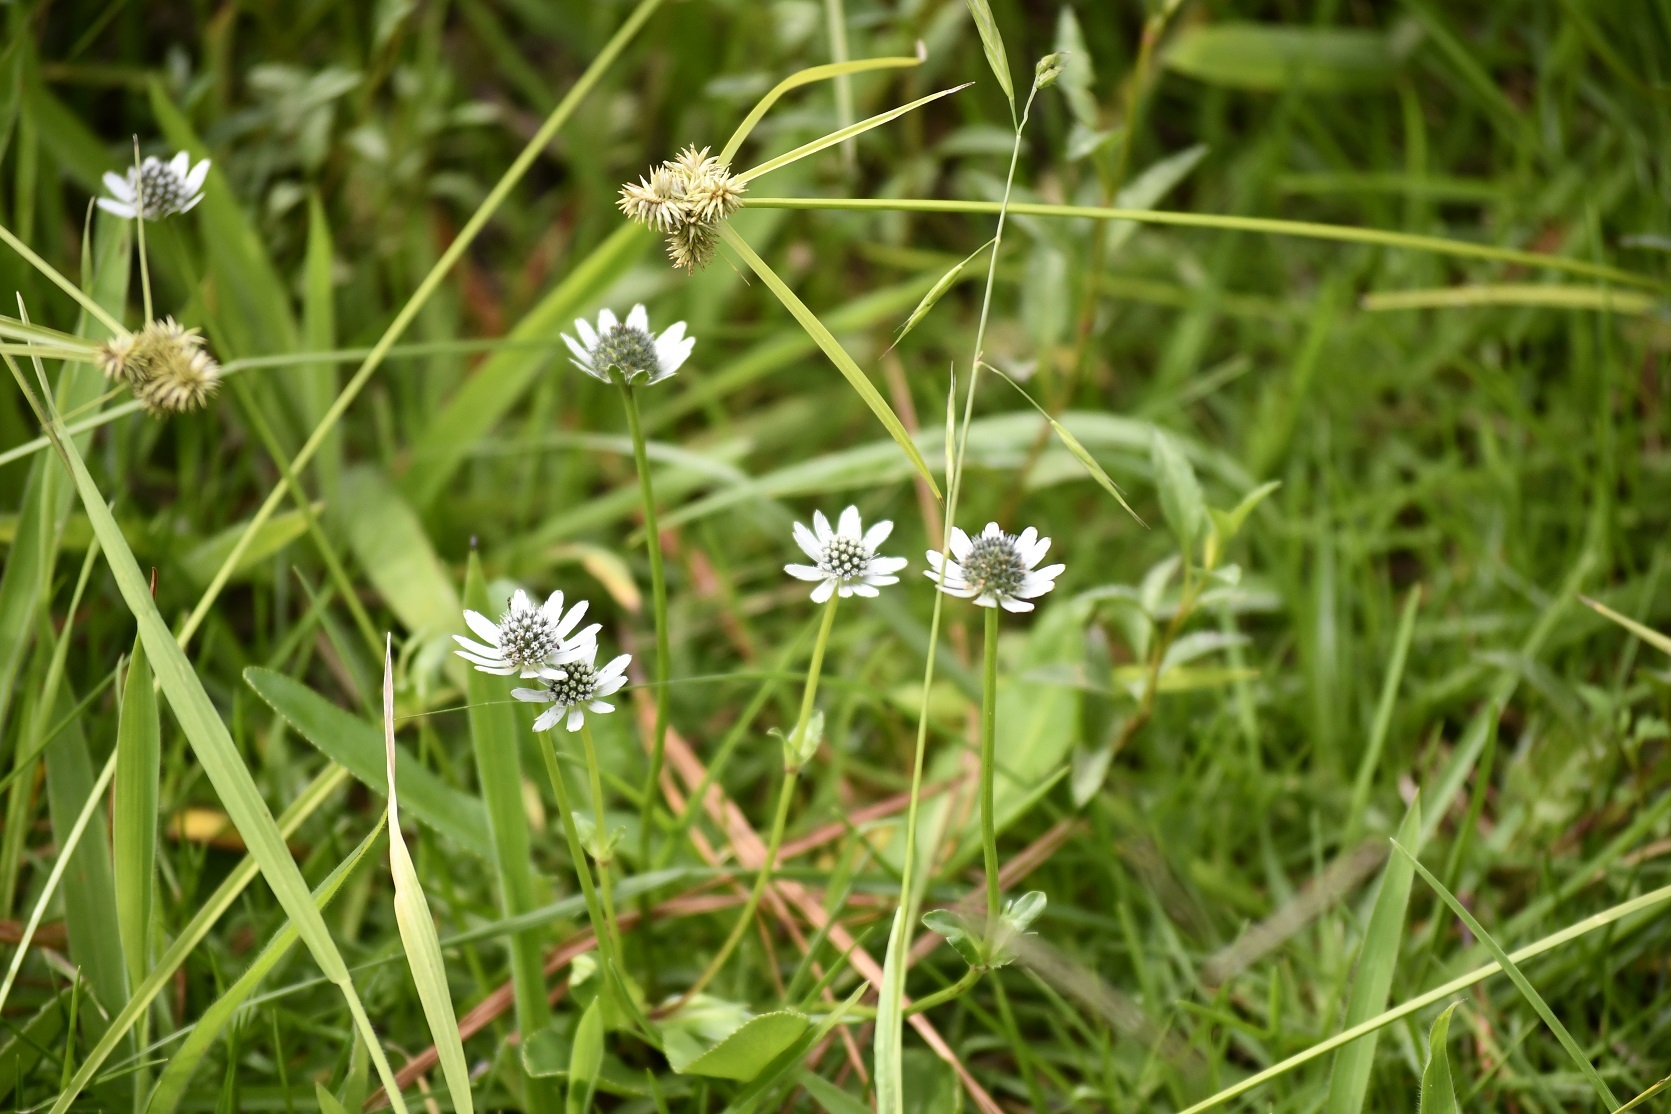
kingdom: Plantae
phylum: Tracheophyta
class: Magnoliopsida
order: Apiales
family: Apiaceae
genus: Eryngium
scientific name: Eryngium scaposum
